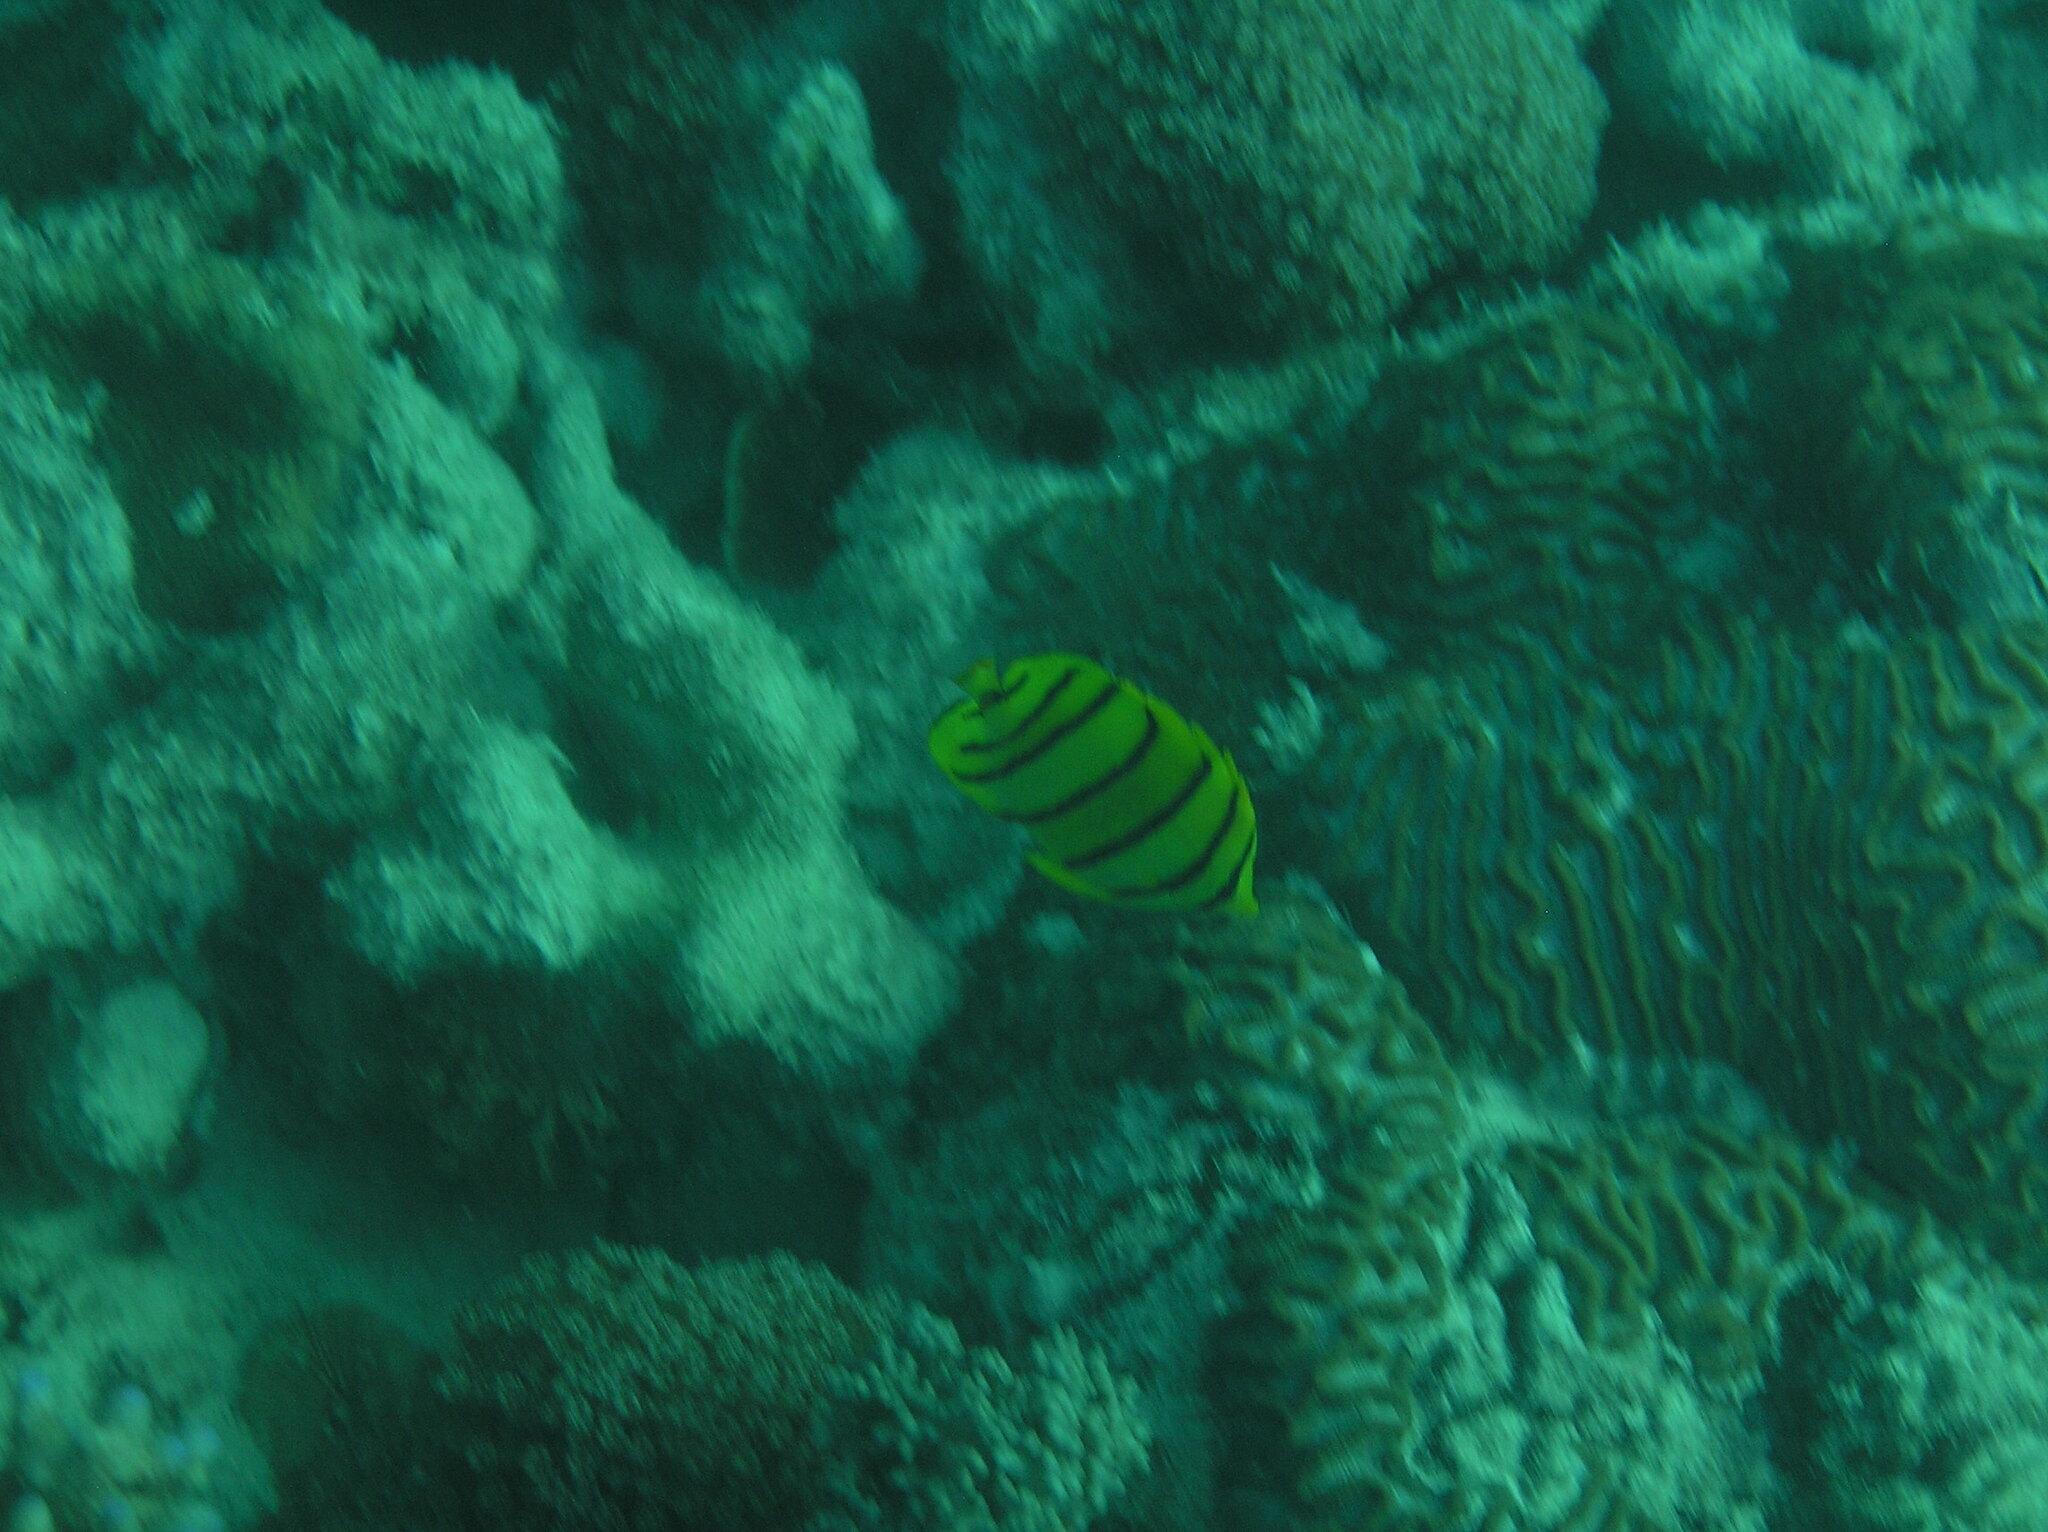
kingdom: Animalia
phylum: Chordata
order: Perciformes
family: Chaetodontidae
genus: Chaetodon
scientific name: Chaetodon octofasciatus
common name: Eightband butterflyfish
